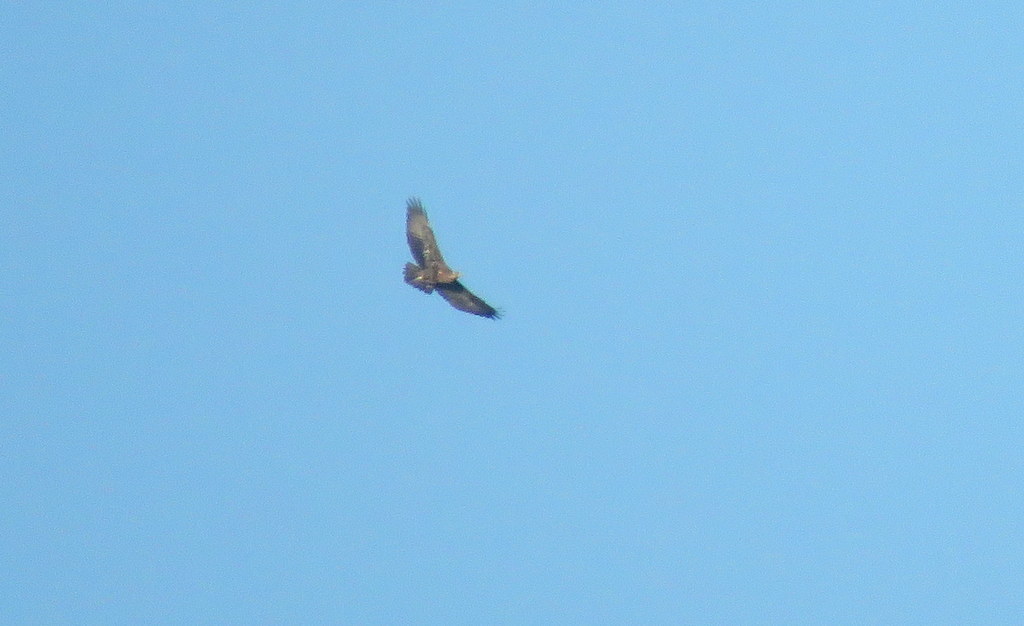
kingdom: Animalia
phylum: Chordata
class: Aves
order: Accipitriformes
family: Accipitridae
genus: Geranoaetus
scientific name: Geranoaetus melanoleucus
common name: Black-chested buzzard-eagle
